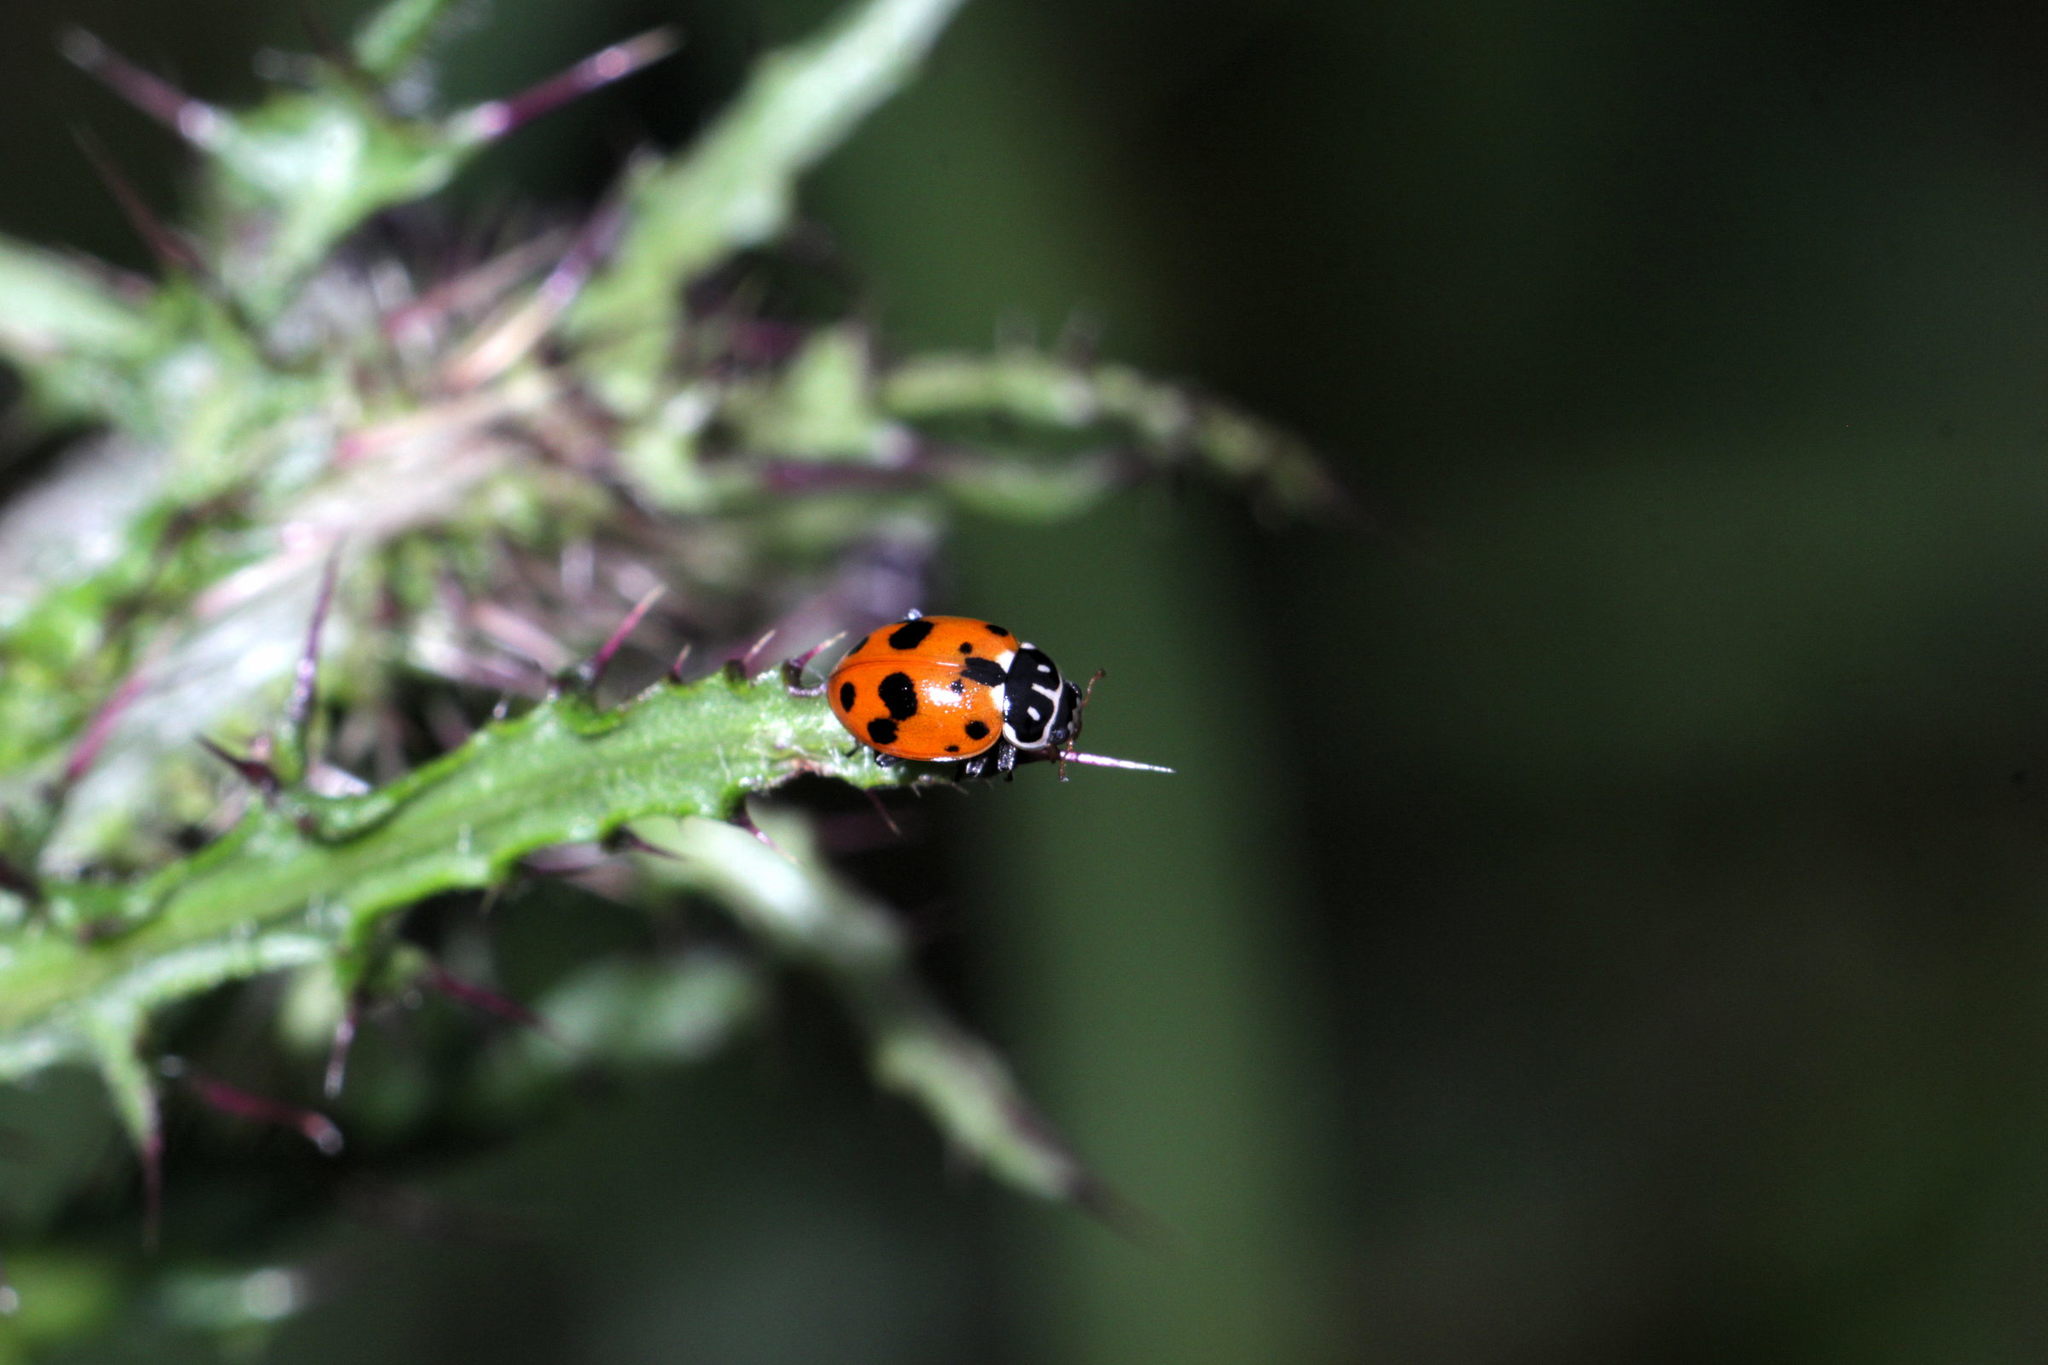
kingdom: Animalia
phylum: Arthropoda
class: Insecta
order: Coleoptera
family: Coccinellidae
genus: Hippodamia
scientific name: Hippodamia variegata
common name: Ladybird beetle
